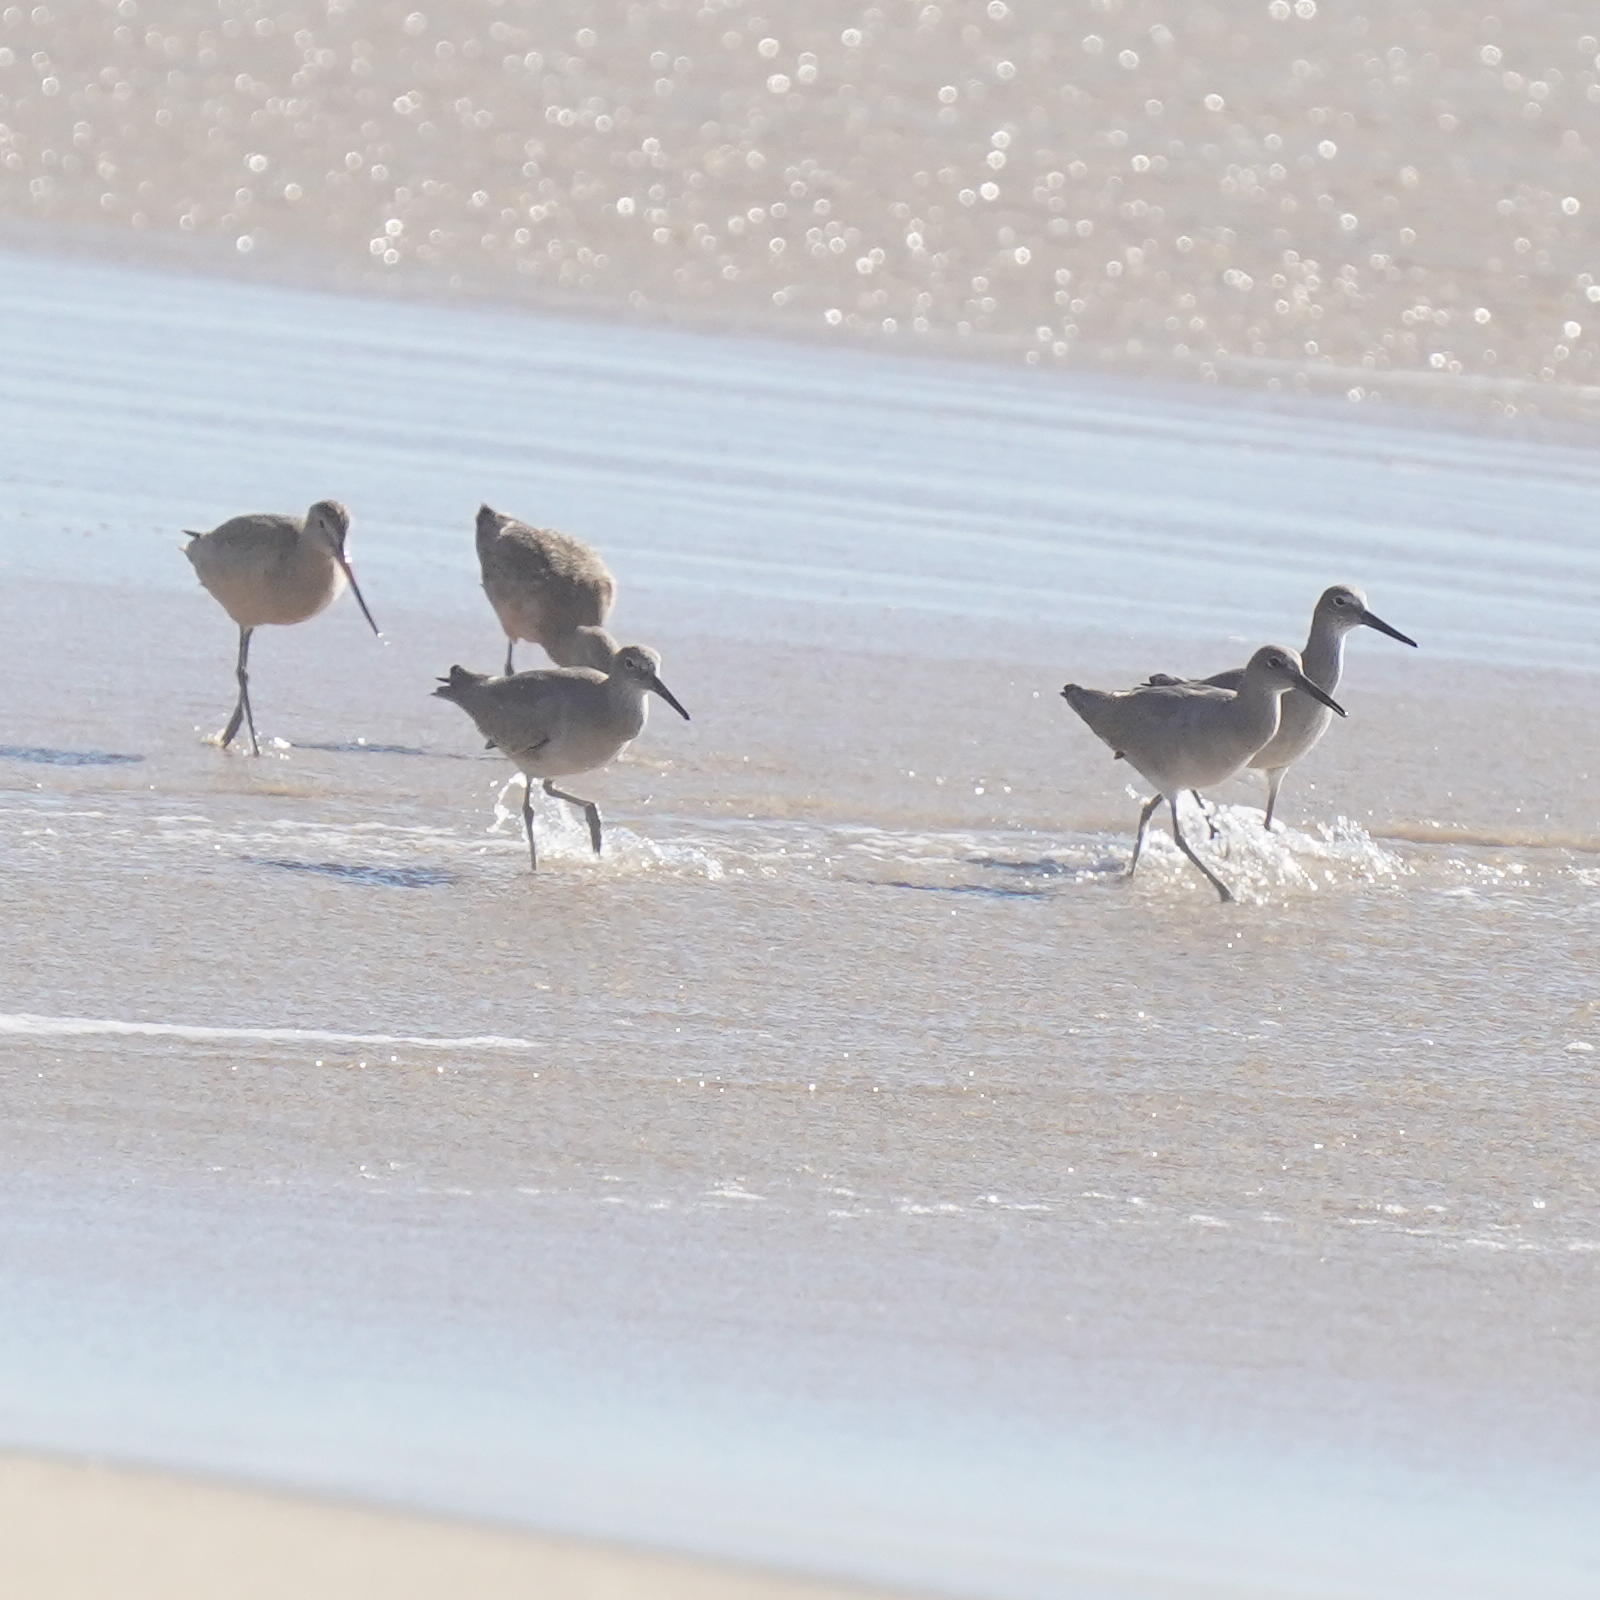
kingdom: Animalia
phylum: Chordata
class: Aves
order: Charadriiformes
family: Scolopacidae
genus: Limosa
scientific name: Limosa fedoa
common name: Marbled godwit
